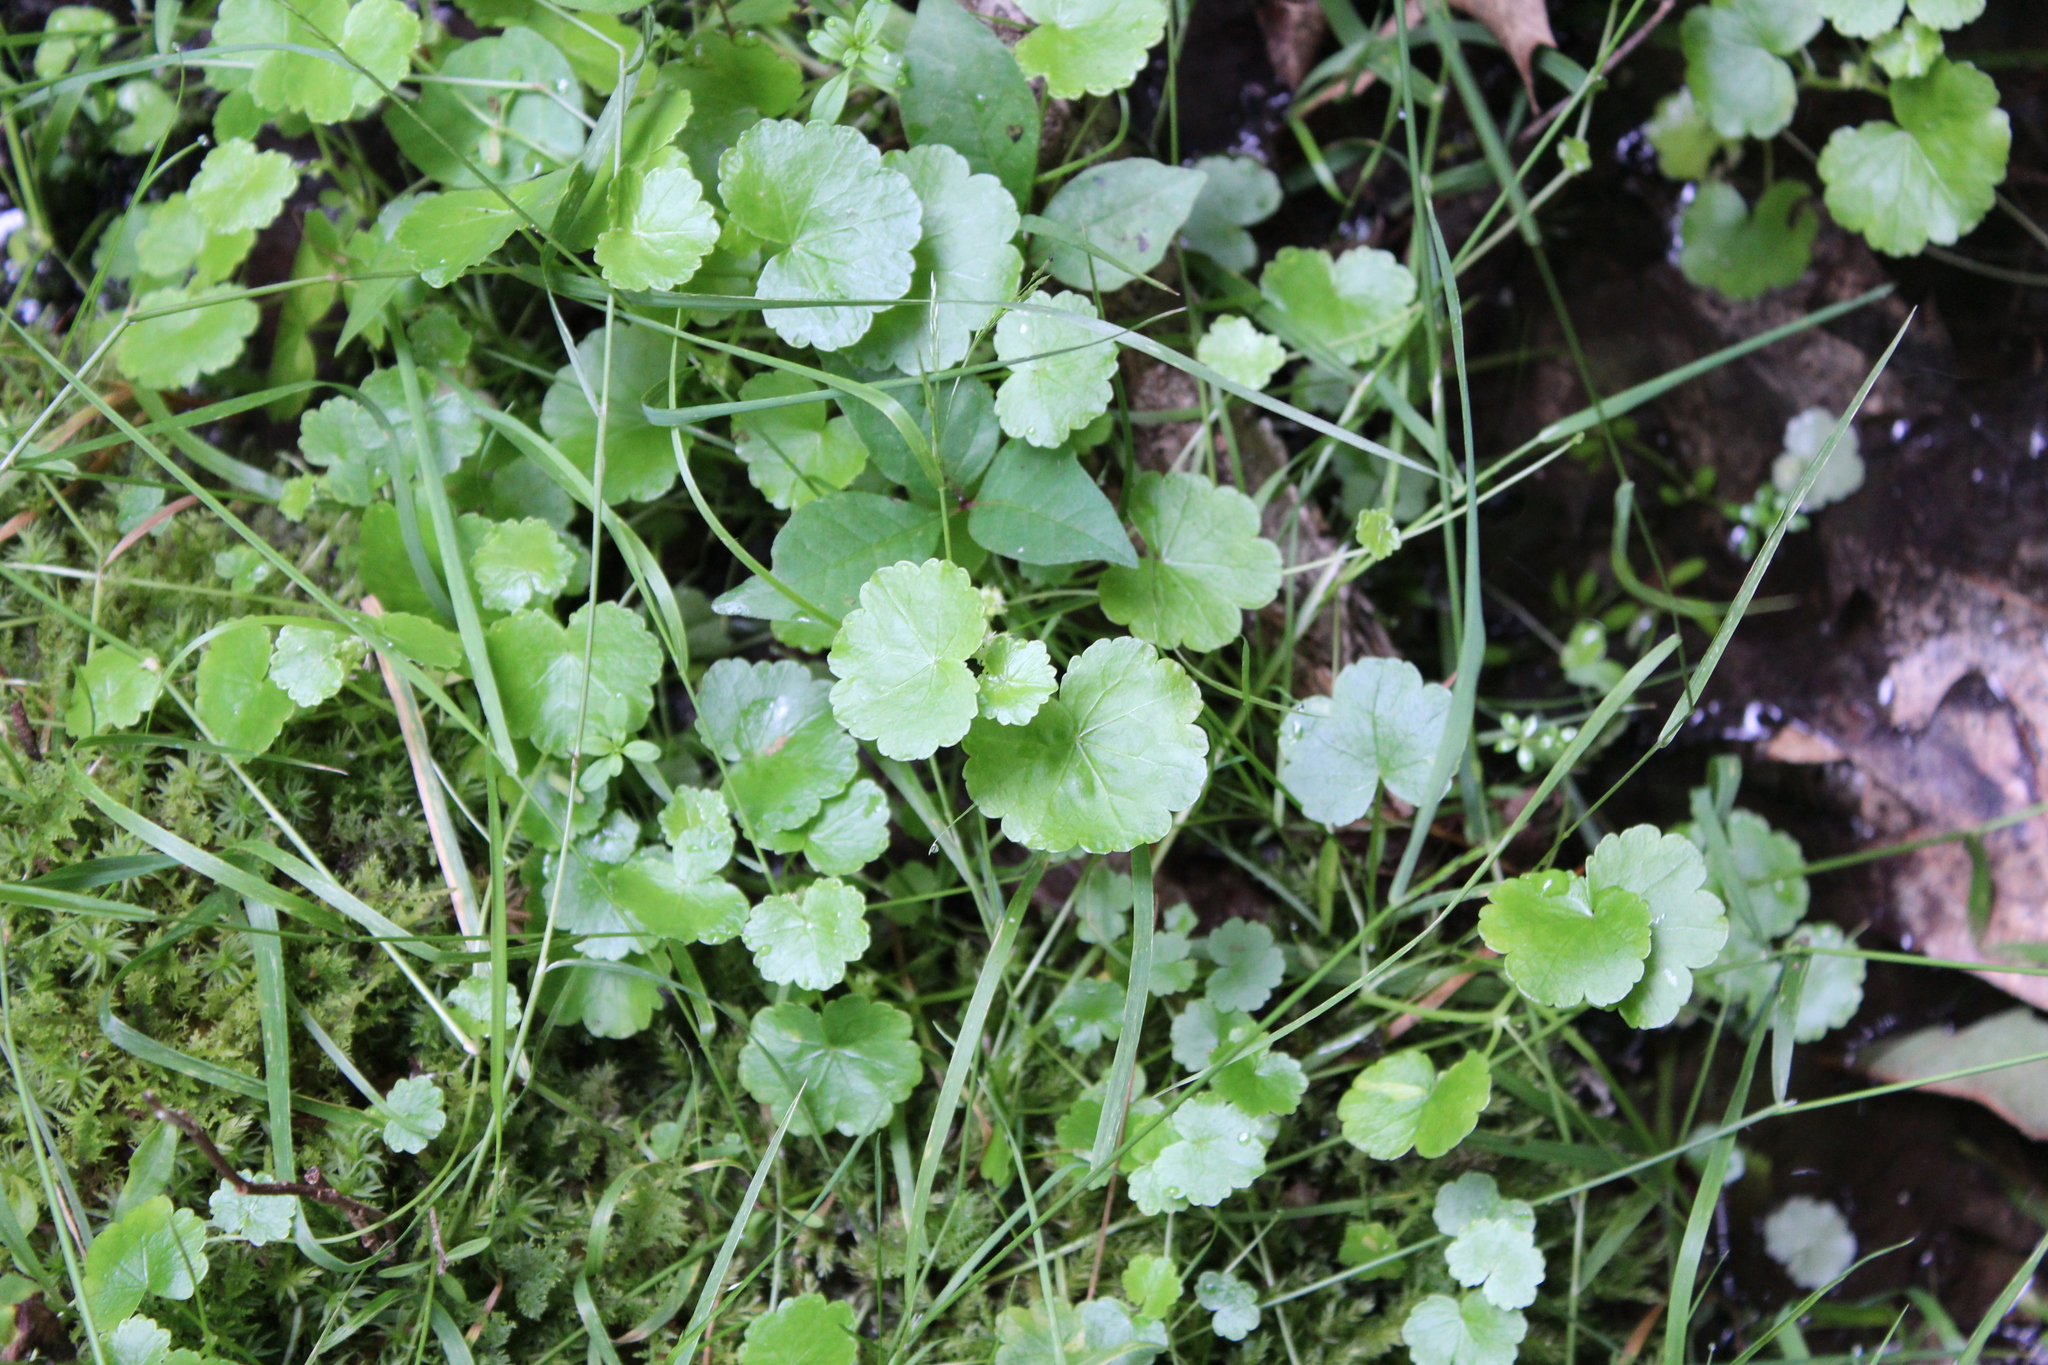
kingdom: Plantae
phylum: Tracheophyta
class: Magnoliopsida
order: Apiales
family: Araliaceae
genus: Hydrocotyle
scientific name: Hydrocotyle americana
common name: American water-pennywort
